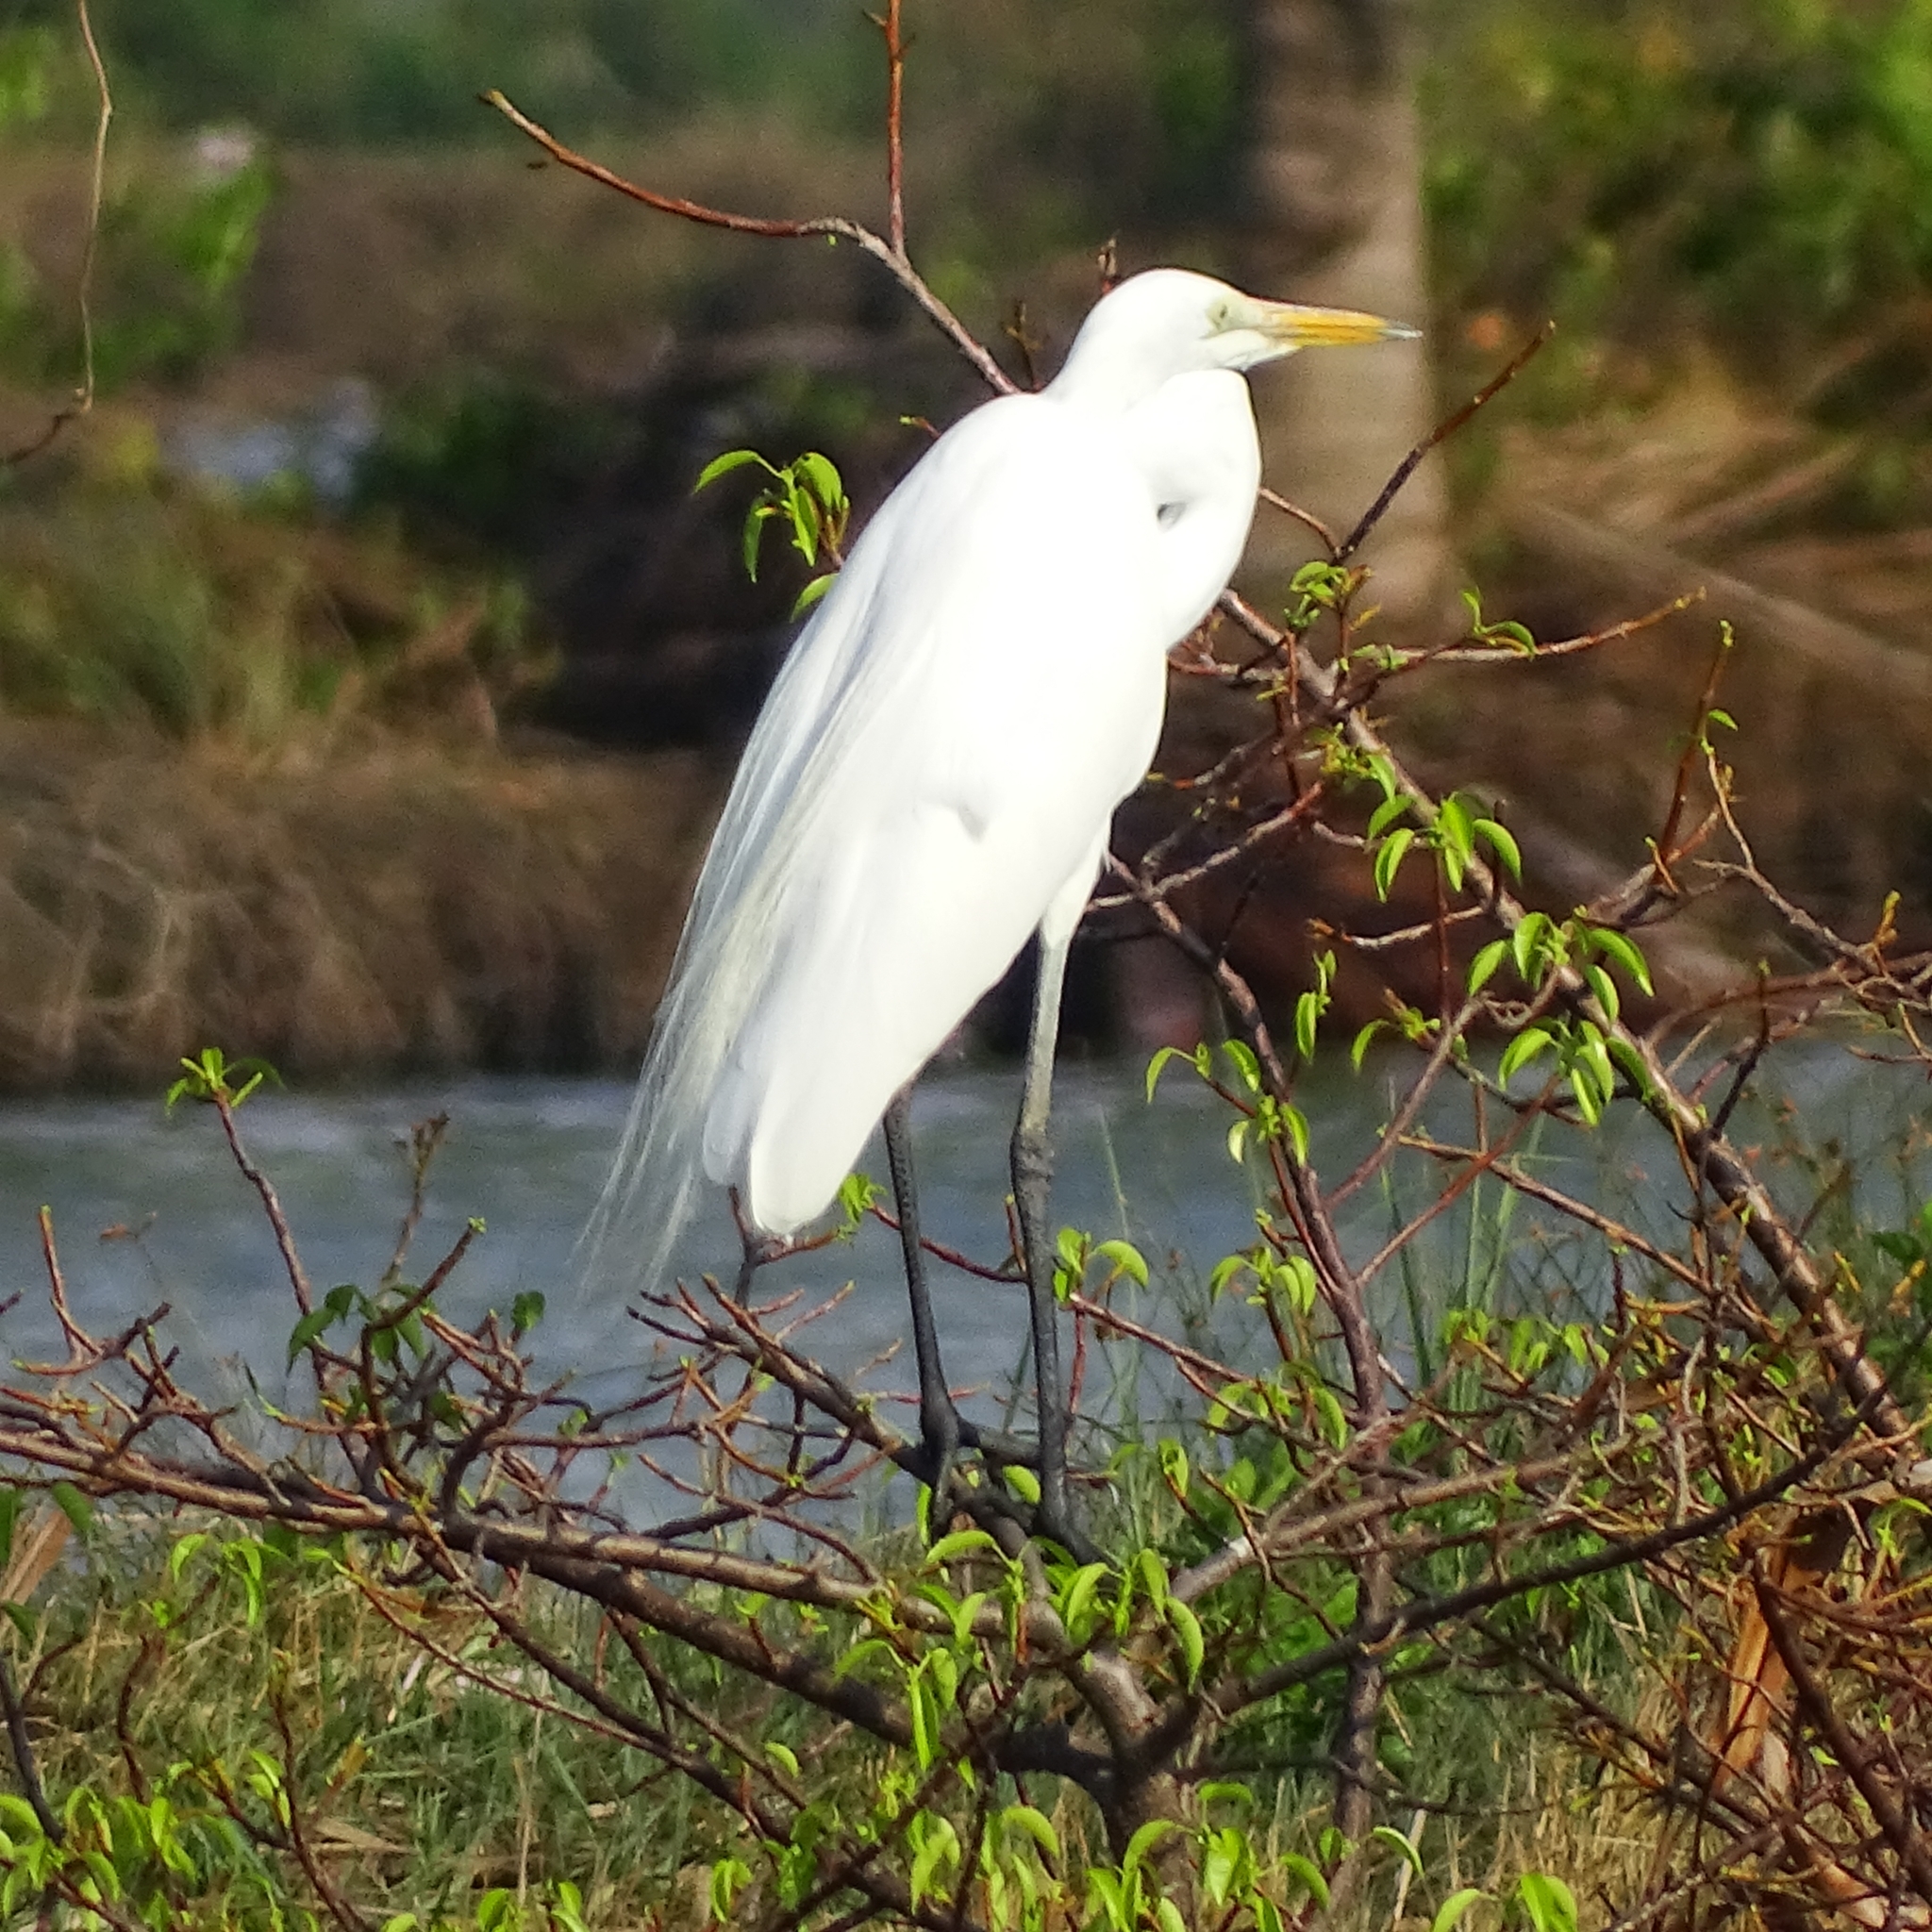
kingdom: Animalia
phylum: Chordata
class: Aves
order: Pelecaniformes
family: Ardeidae
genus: Ardea
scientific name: Ardea alba
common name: Great egret
